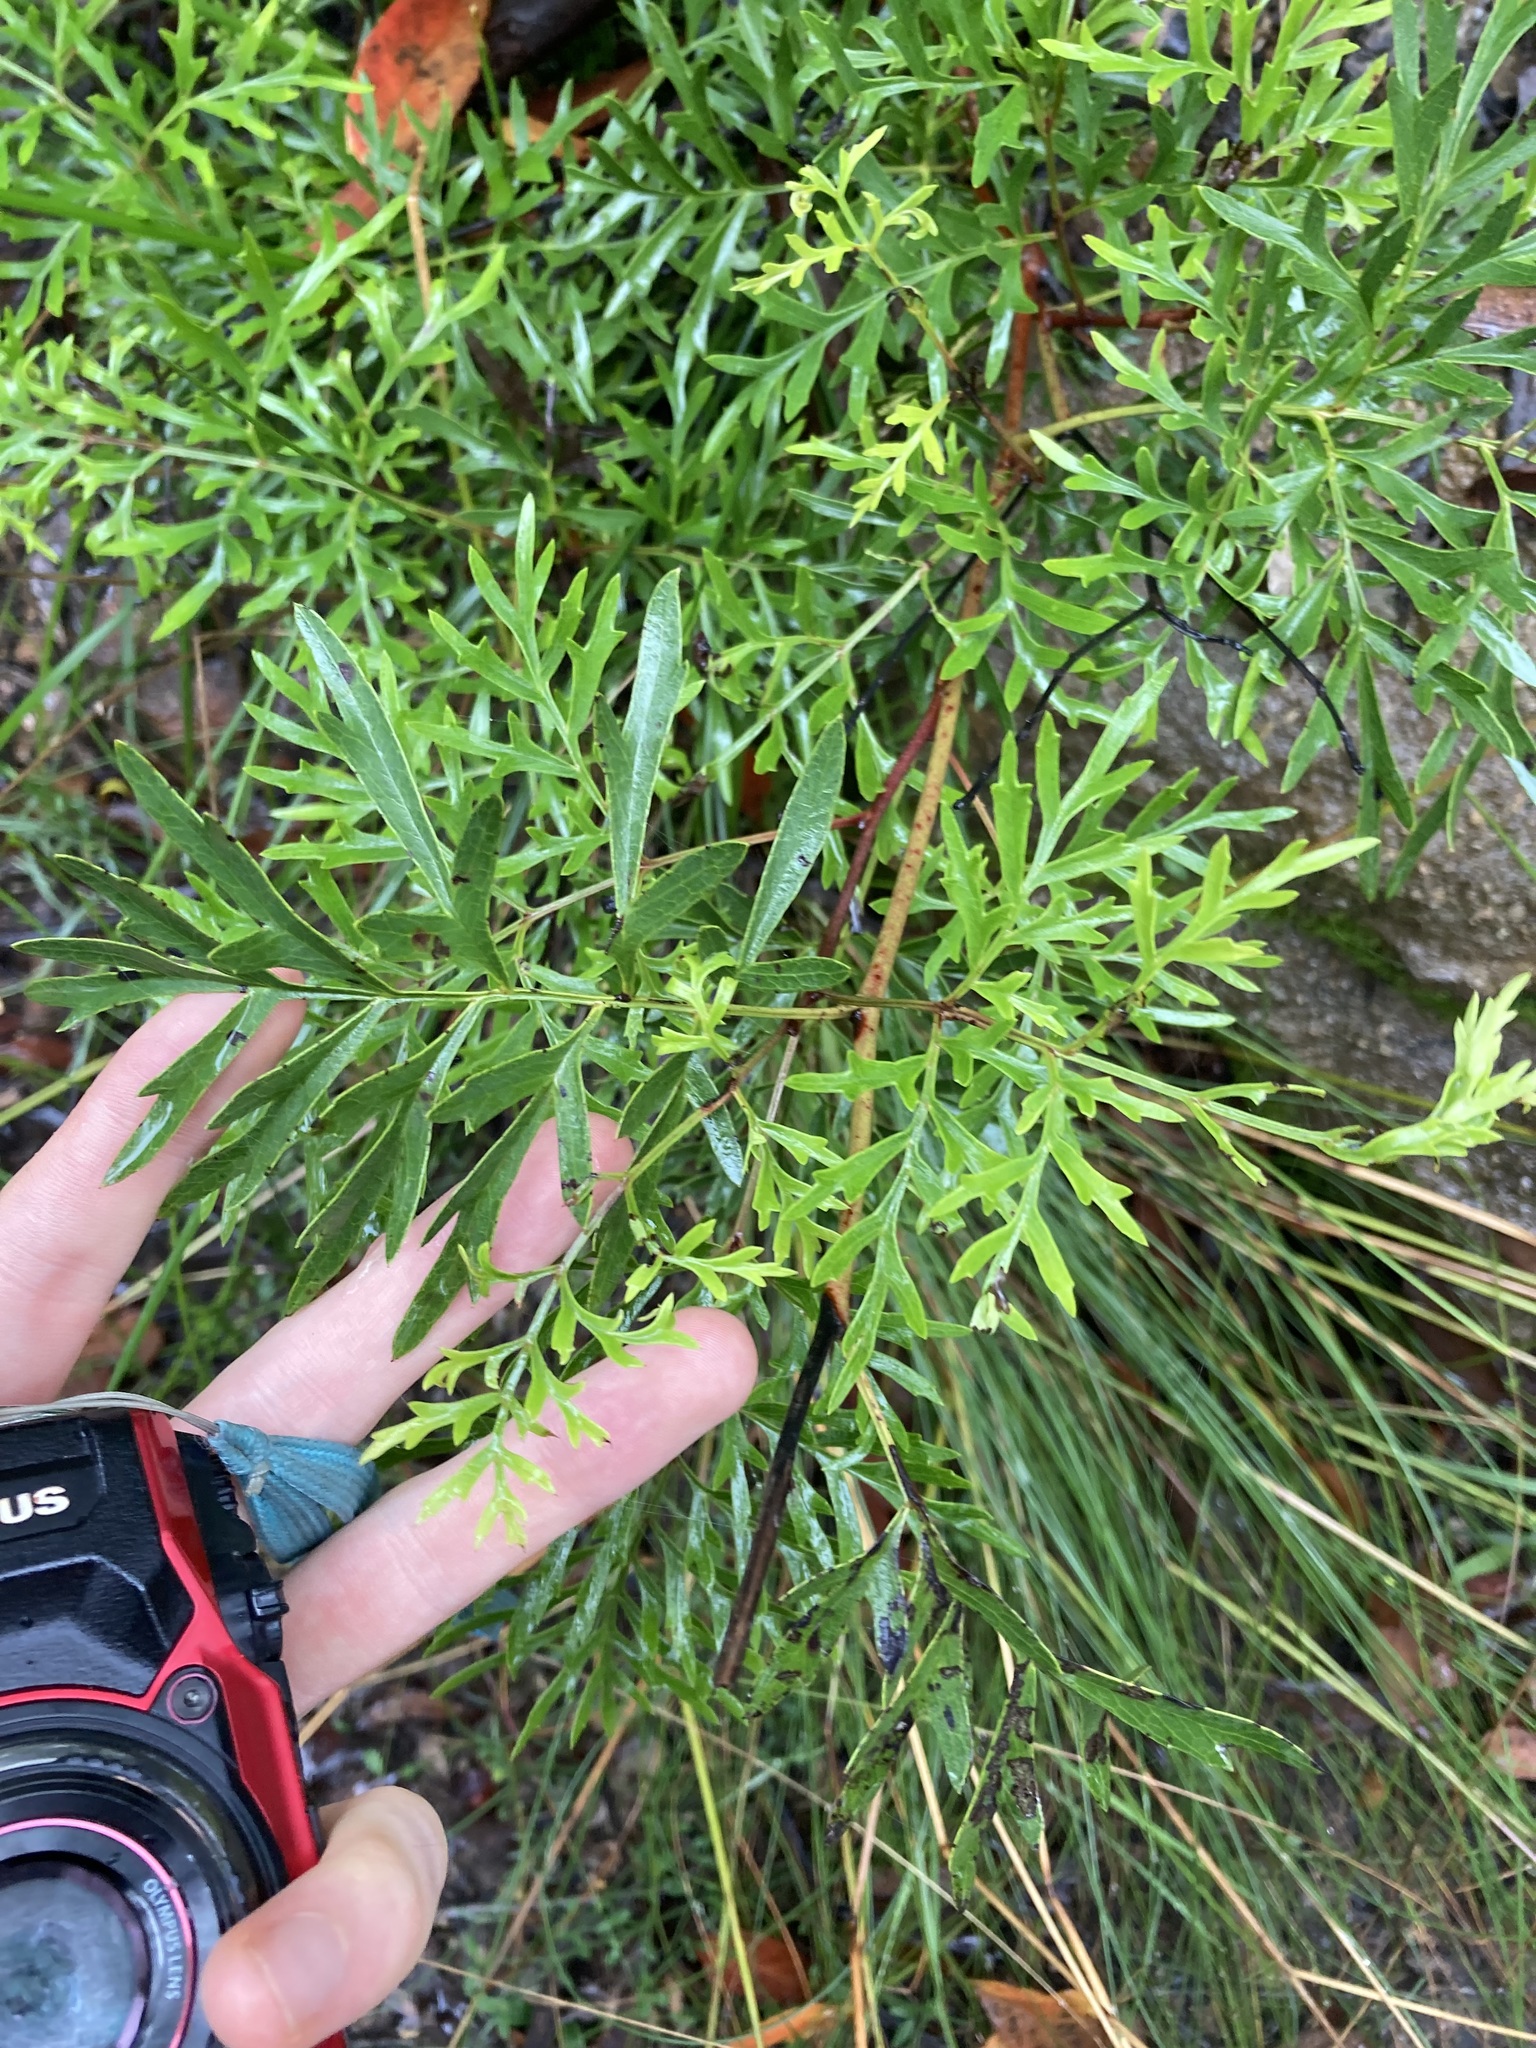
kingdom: Plantae
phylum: Tracheophyta
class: Magnoliopsida
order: Proteales
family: Proteaceae
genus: Lomatia
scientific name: Lomatia silaifolia
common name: Crinklebush
